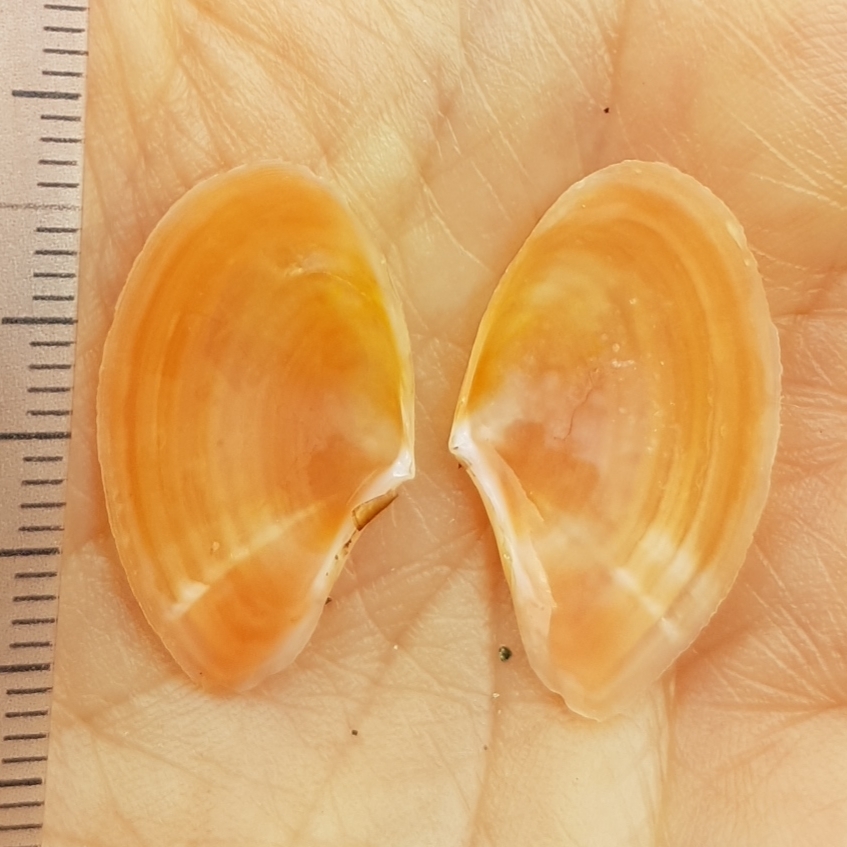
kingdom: Animalia
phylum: Mollusca
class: Bivalvia
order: Cardiida
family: Tellinidae
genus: Bosemprella
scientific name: Bosemprella incarnata
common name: Red tellin
